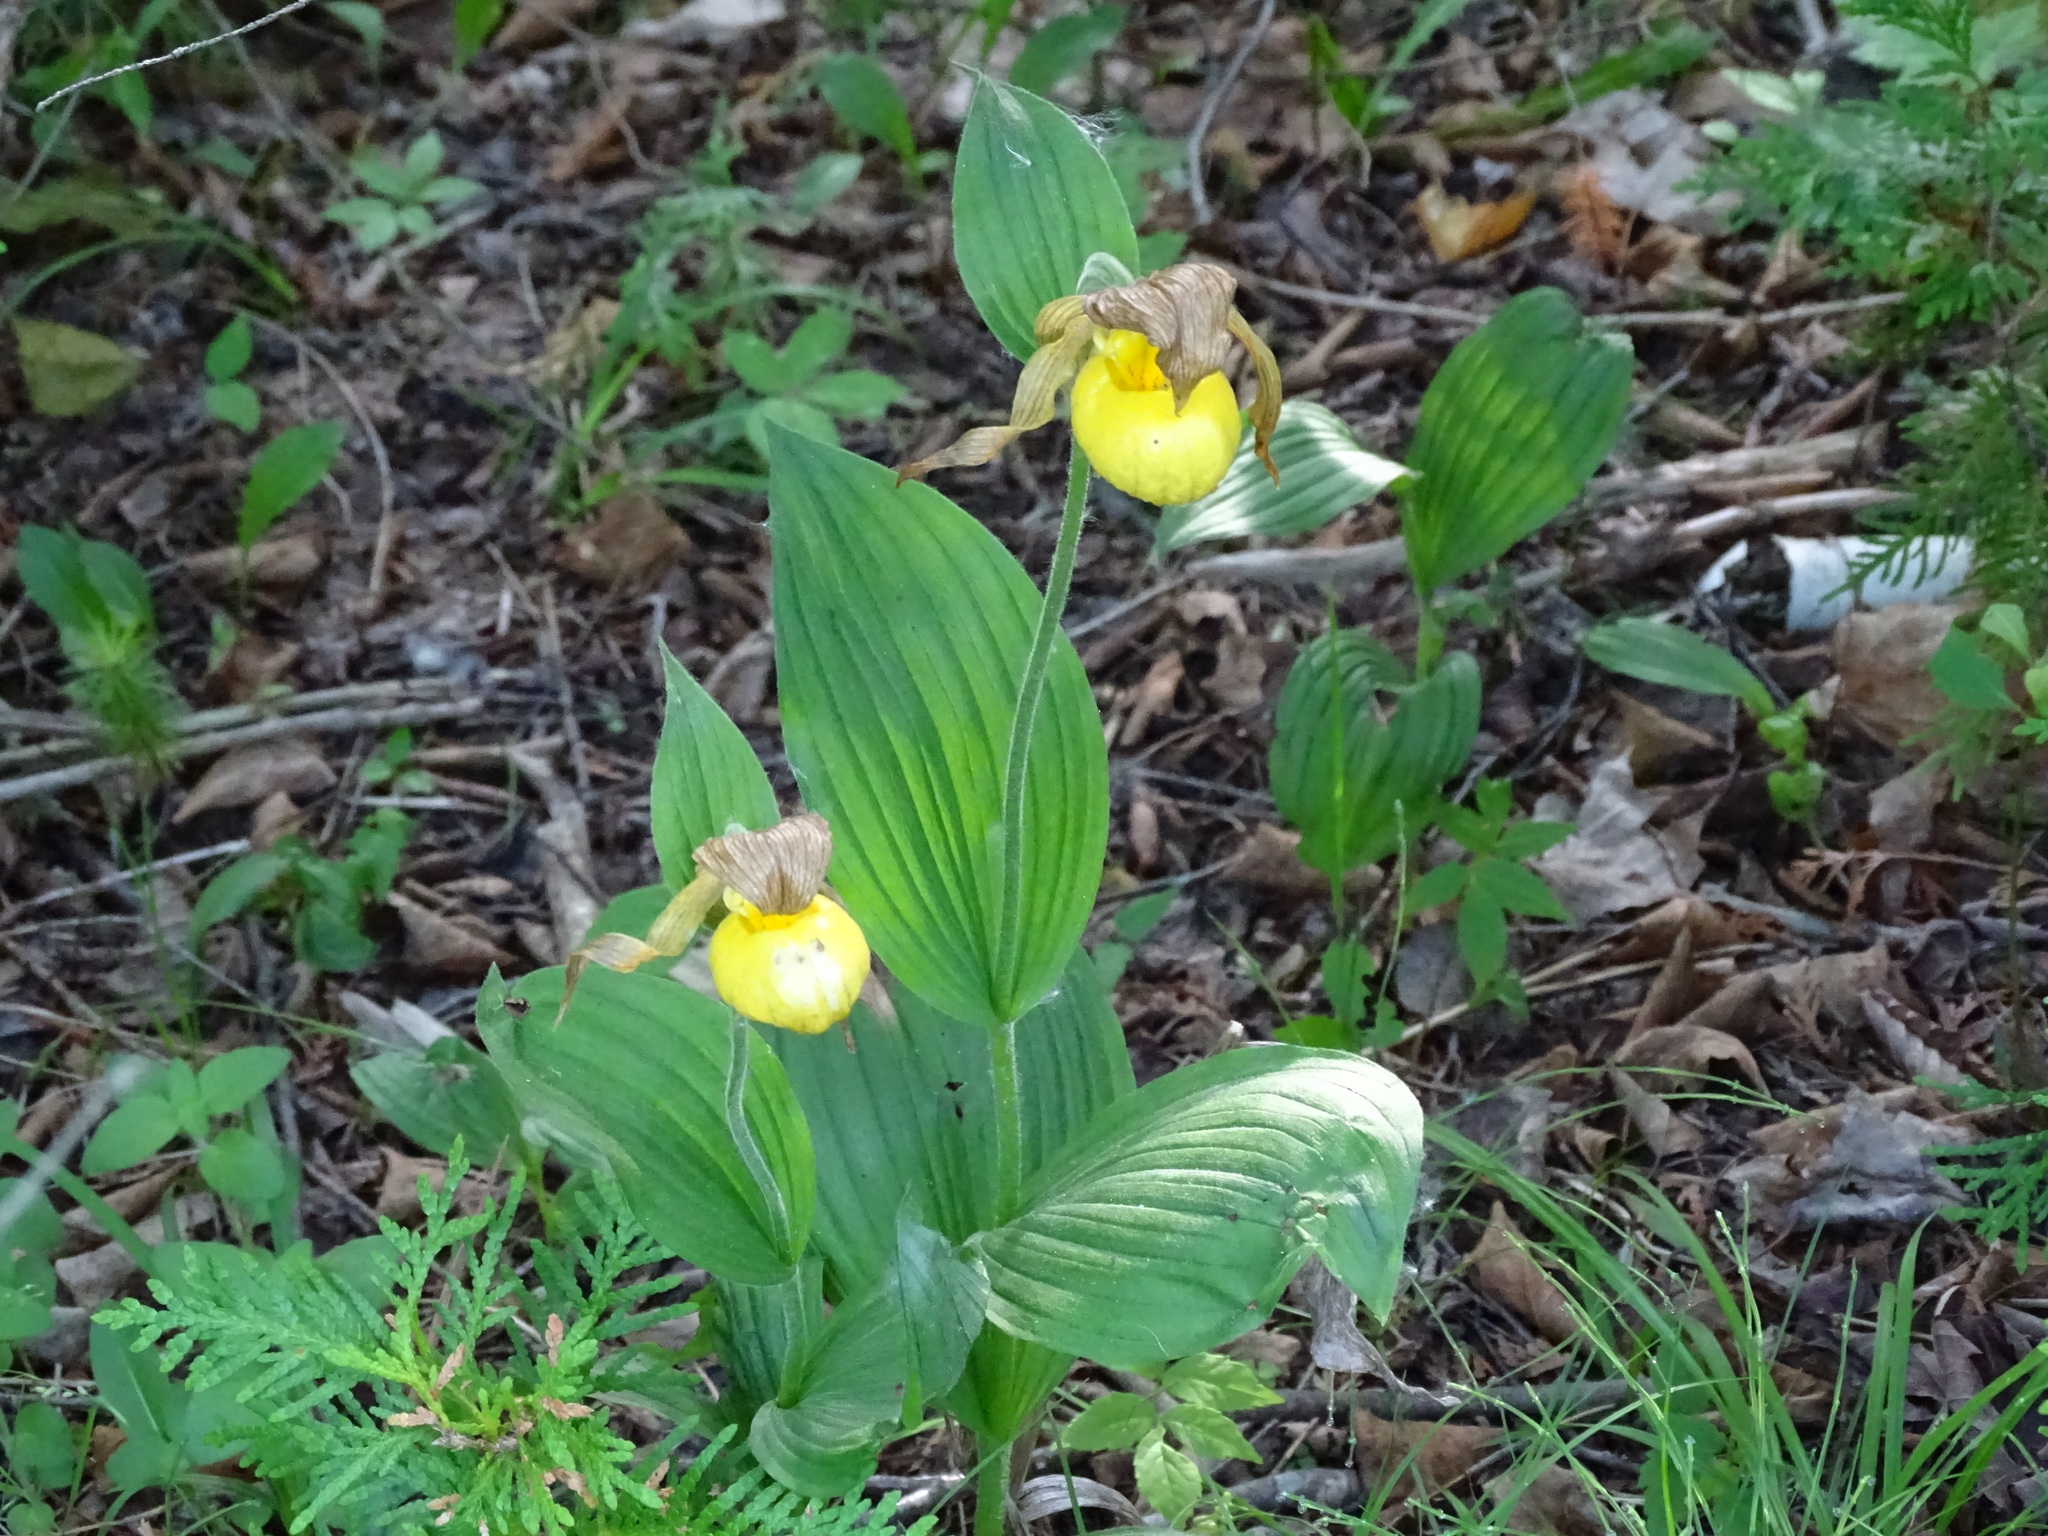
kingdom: Plantae
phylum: Tracheophyta
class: Liliopsida
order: Asparagales
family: Orchidaceae
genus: Cypripedium
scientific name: Cypripedium parviflorum
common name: American yellow lady's-slipper
